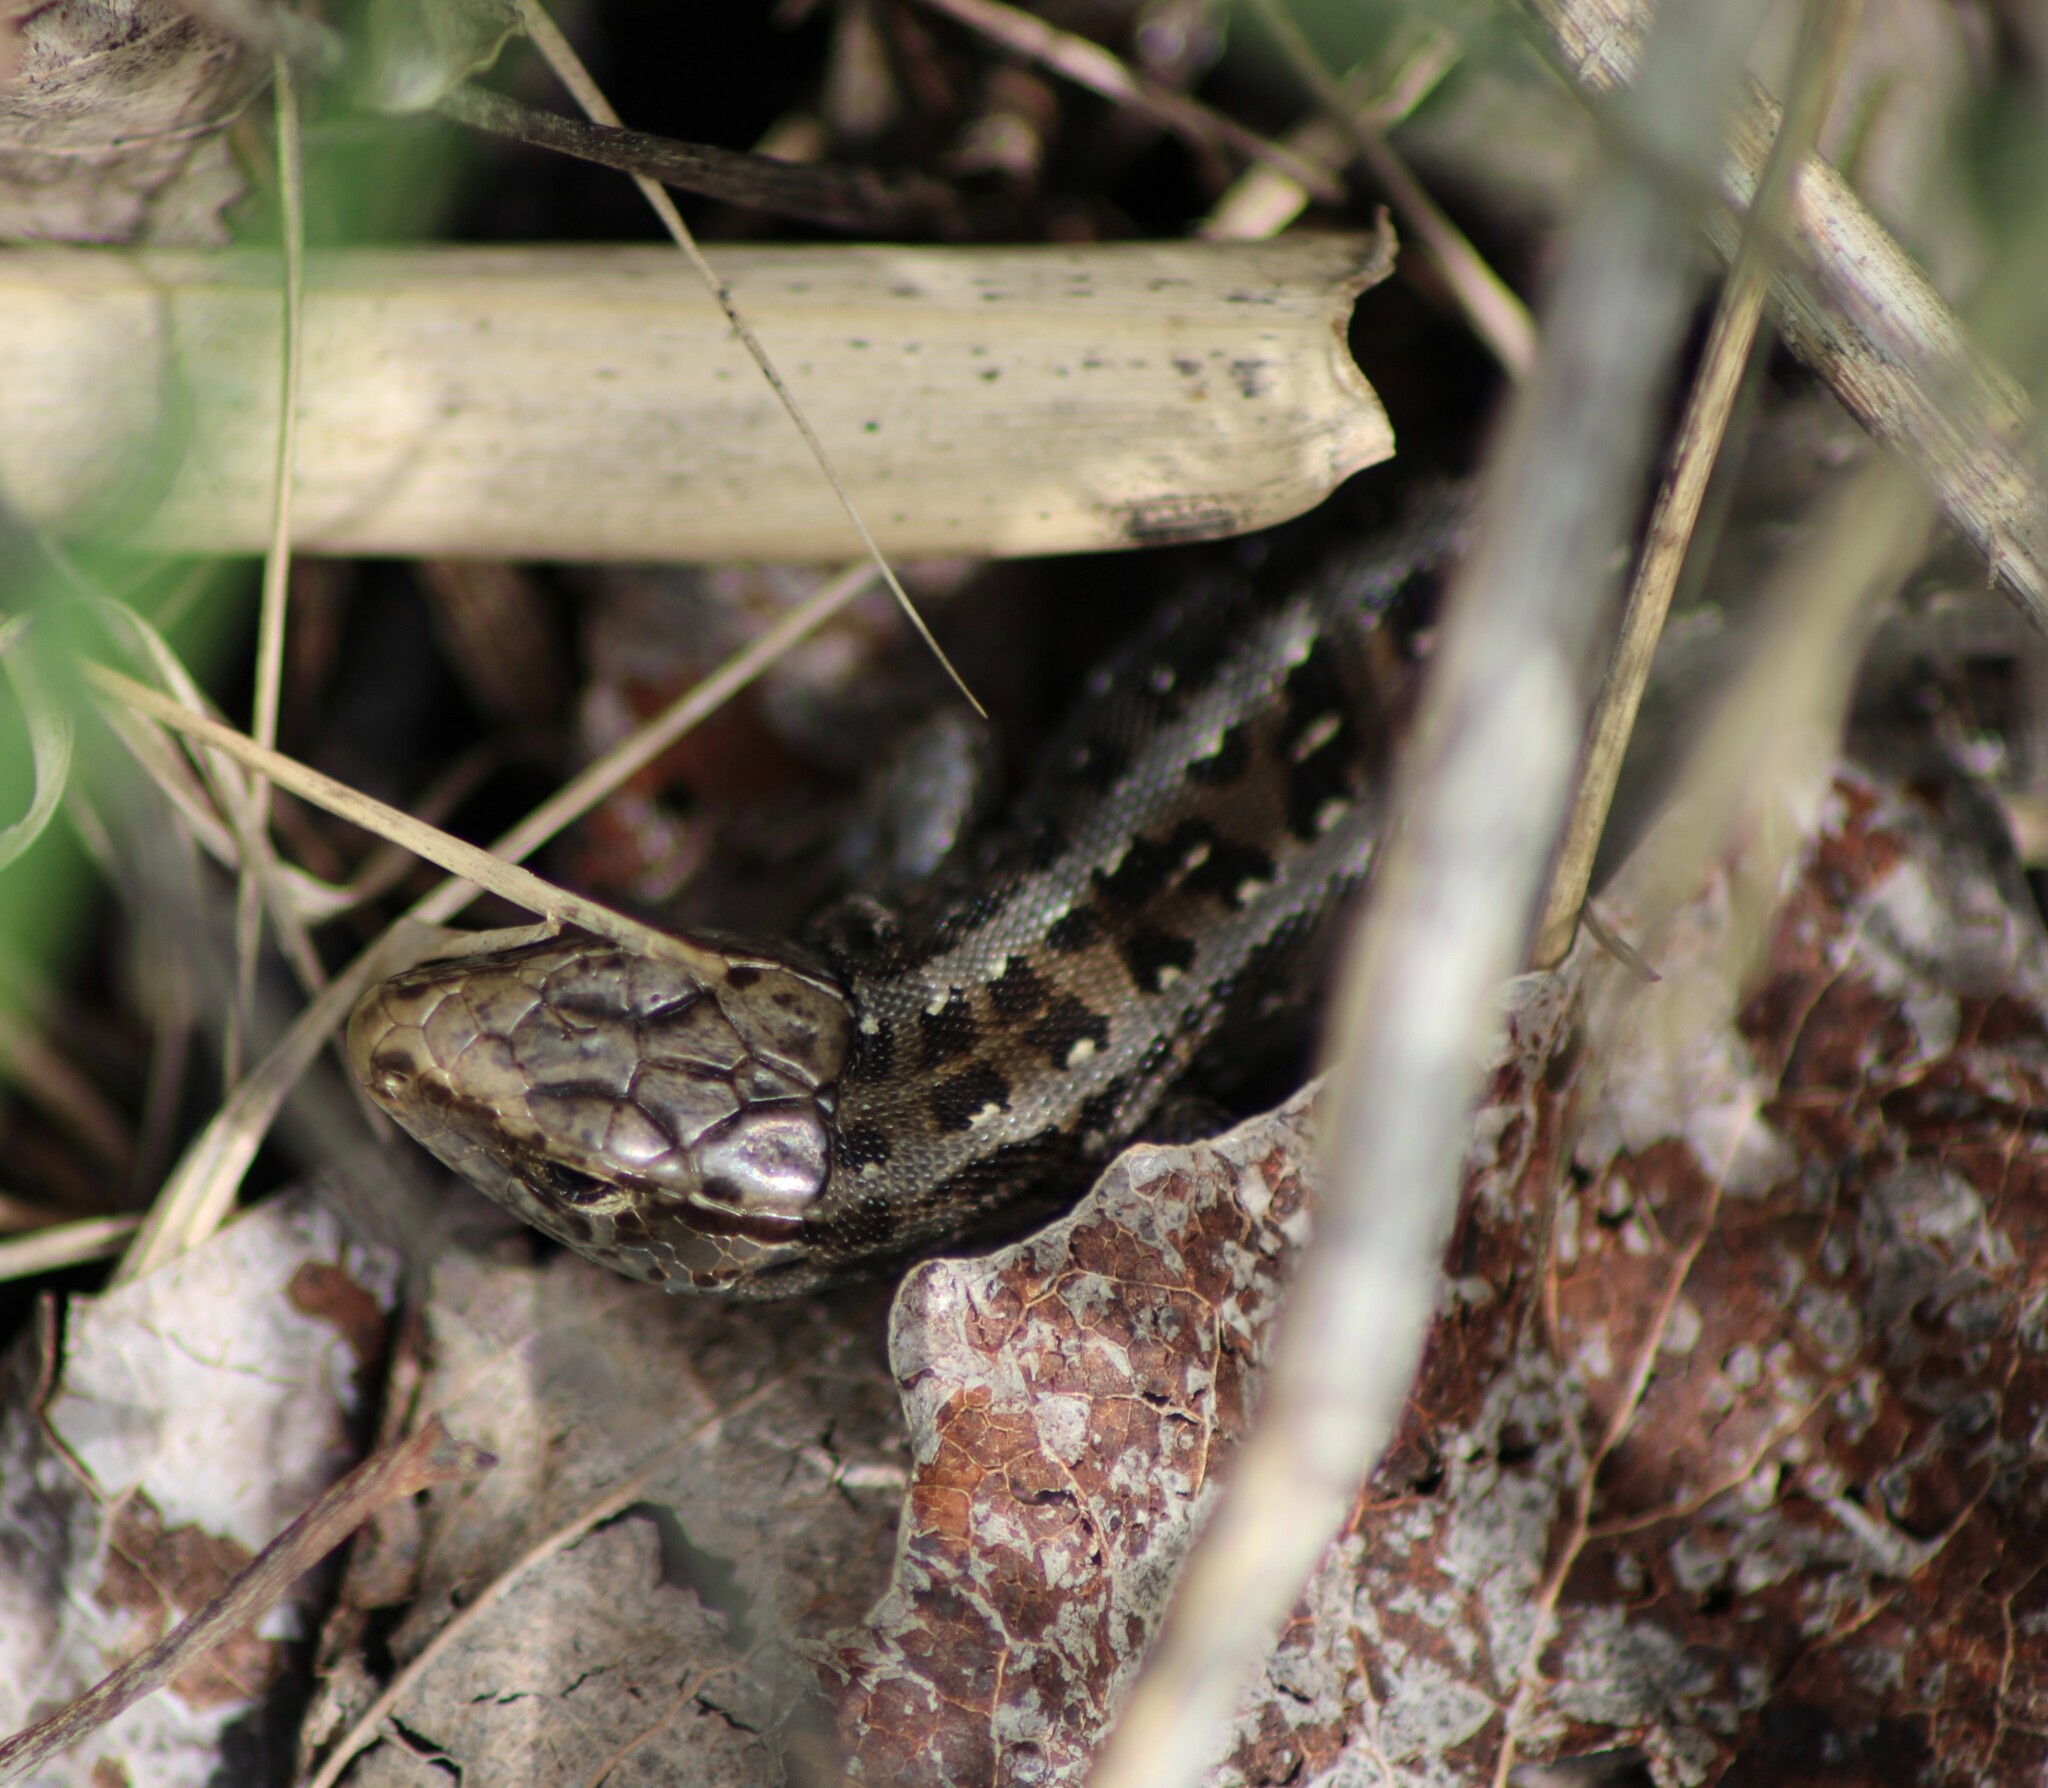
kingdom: Animalia
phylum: Chordata
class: Squamata
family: Lacertidae
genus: Lacerta
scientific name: Lacerta agilis
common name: Sand lizard
